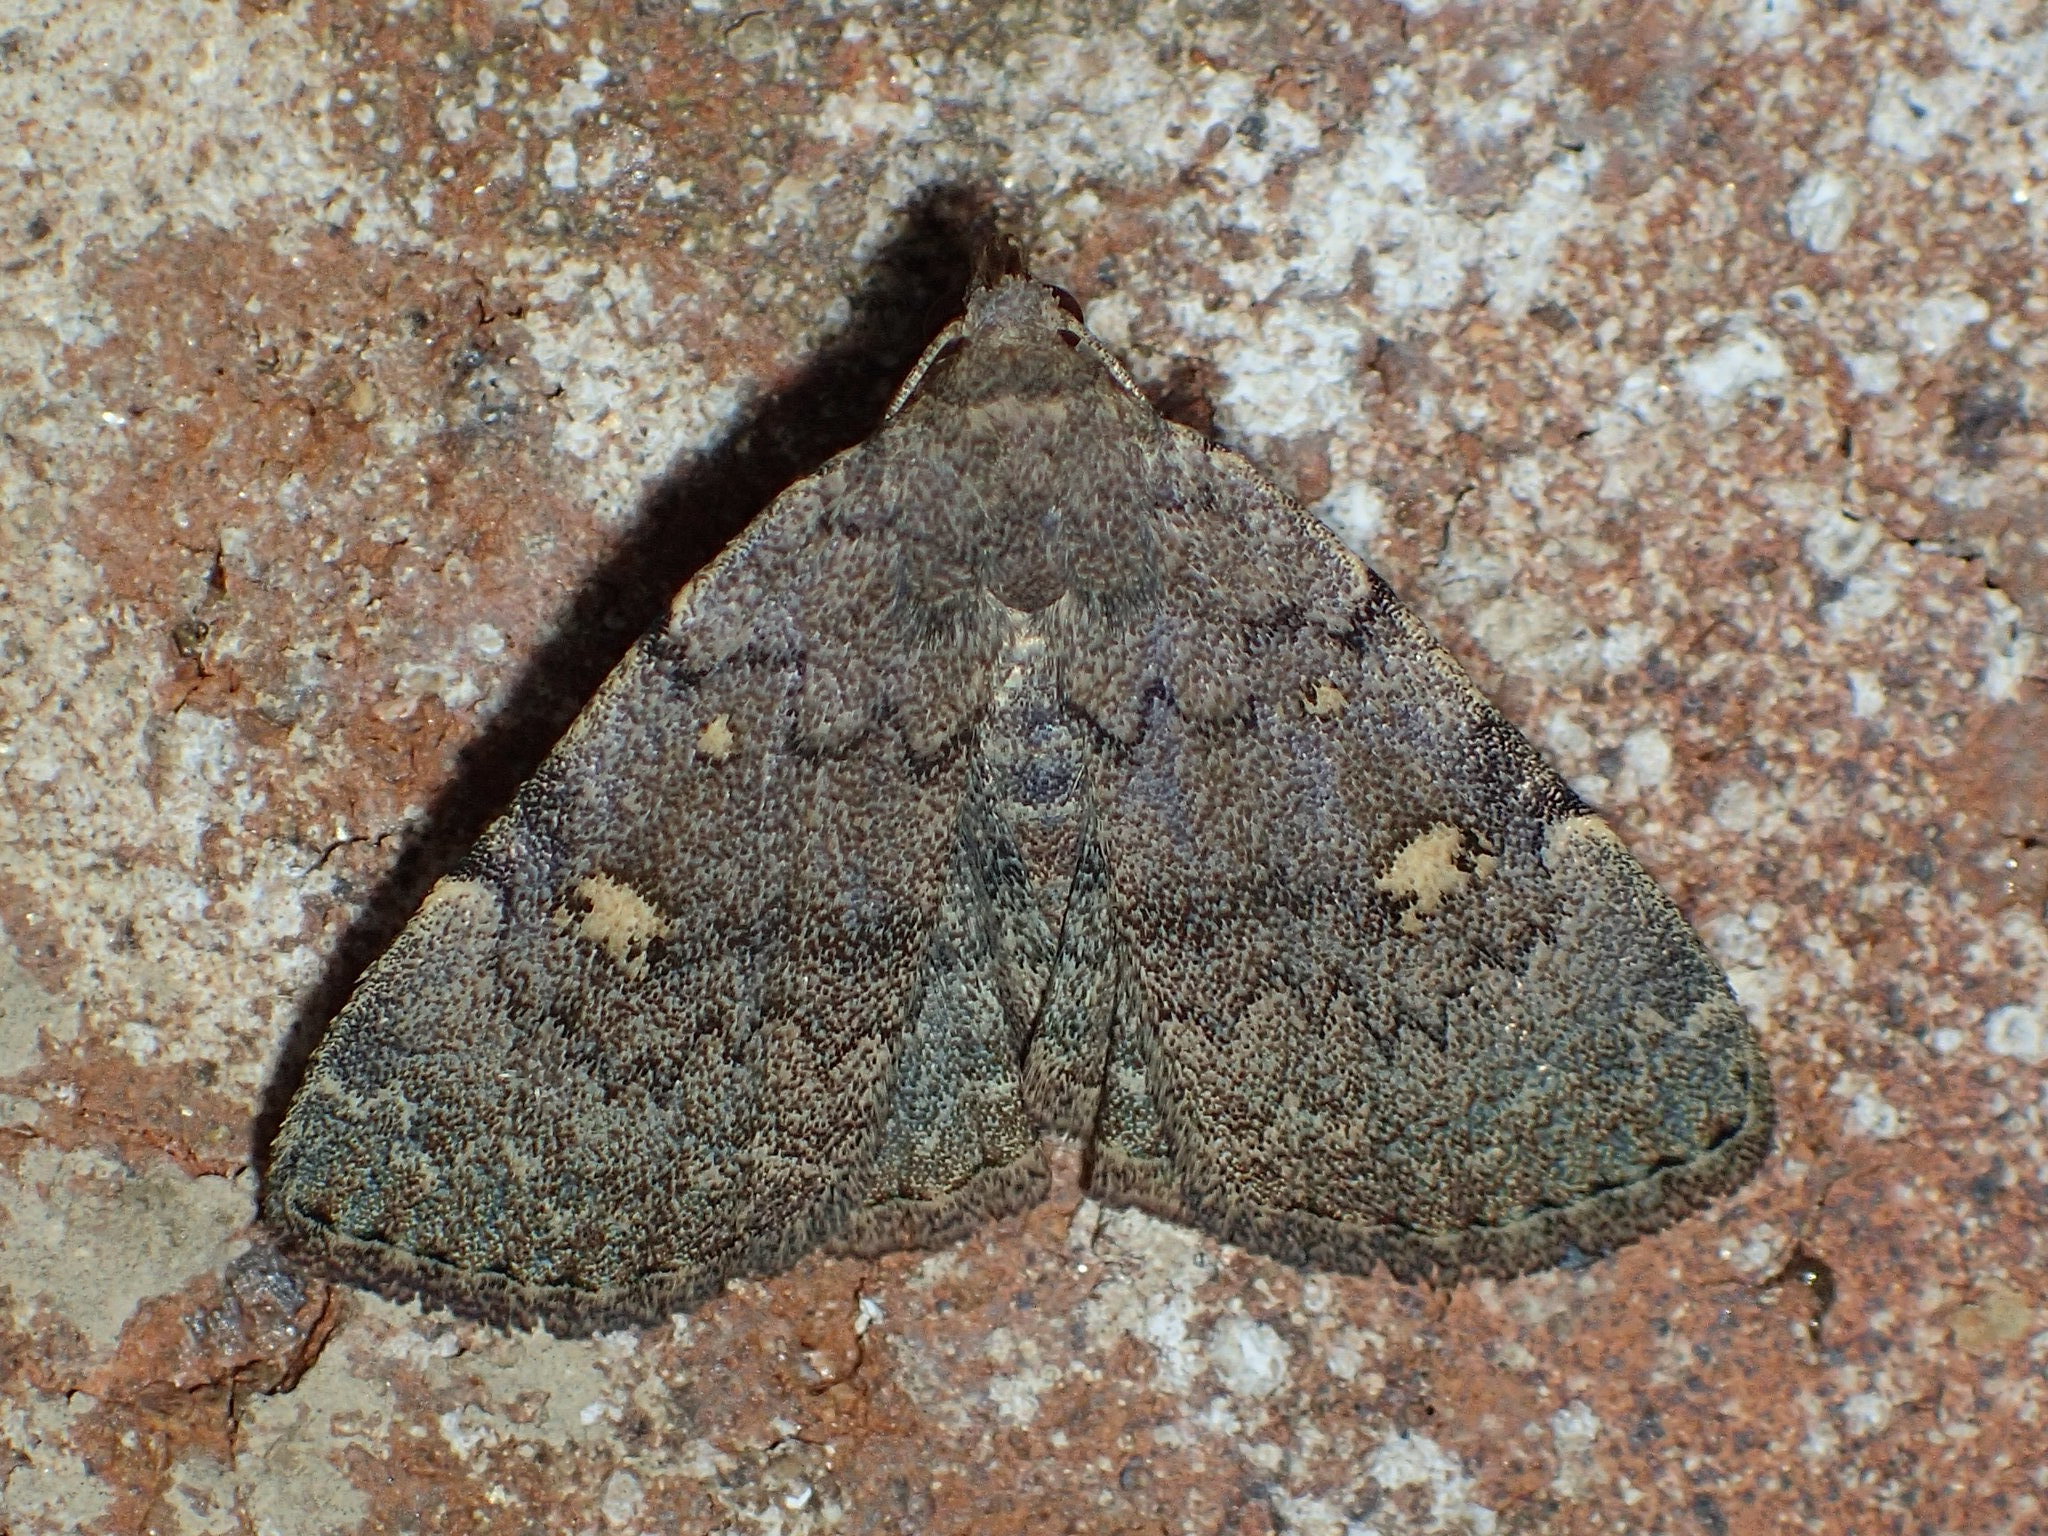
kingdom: Animalia
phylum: Arthropoda
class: Insecta
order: Lepidoptera
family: Erebidae
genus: Idia
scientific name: Idia aemula
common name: Common idia moth
